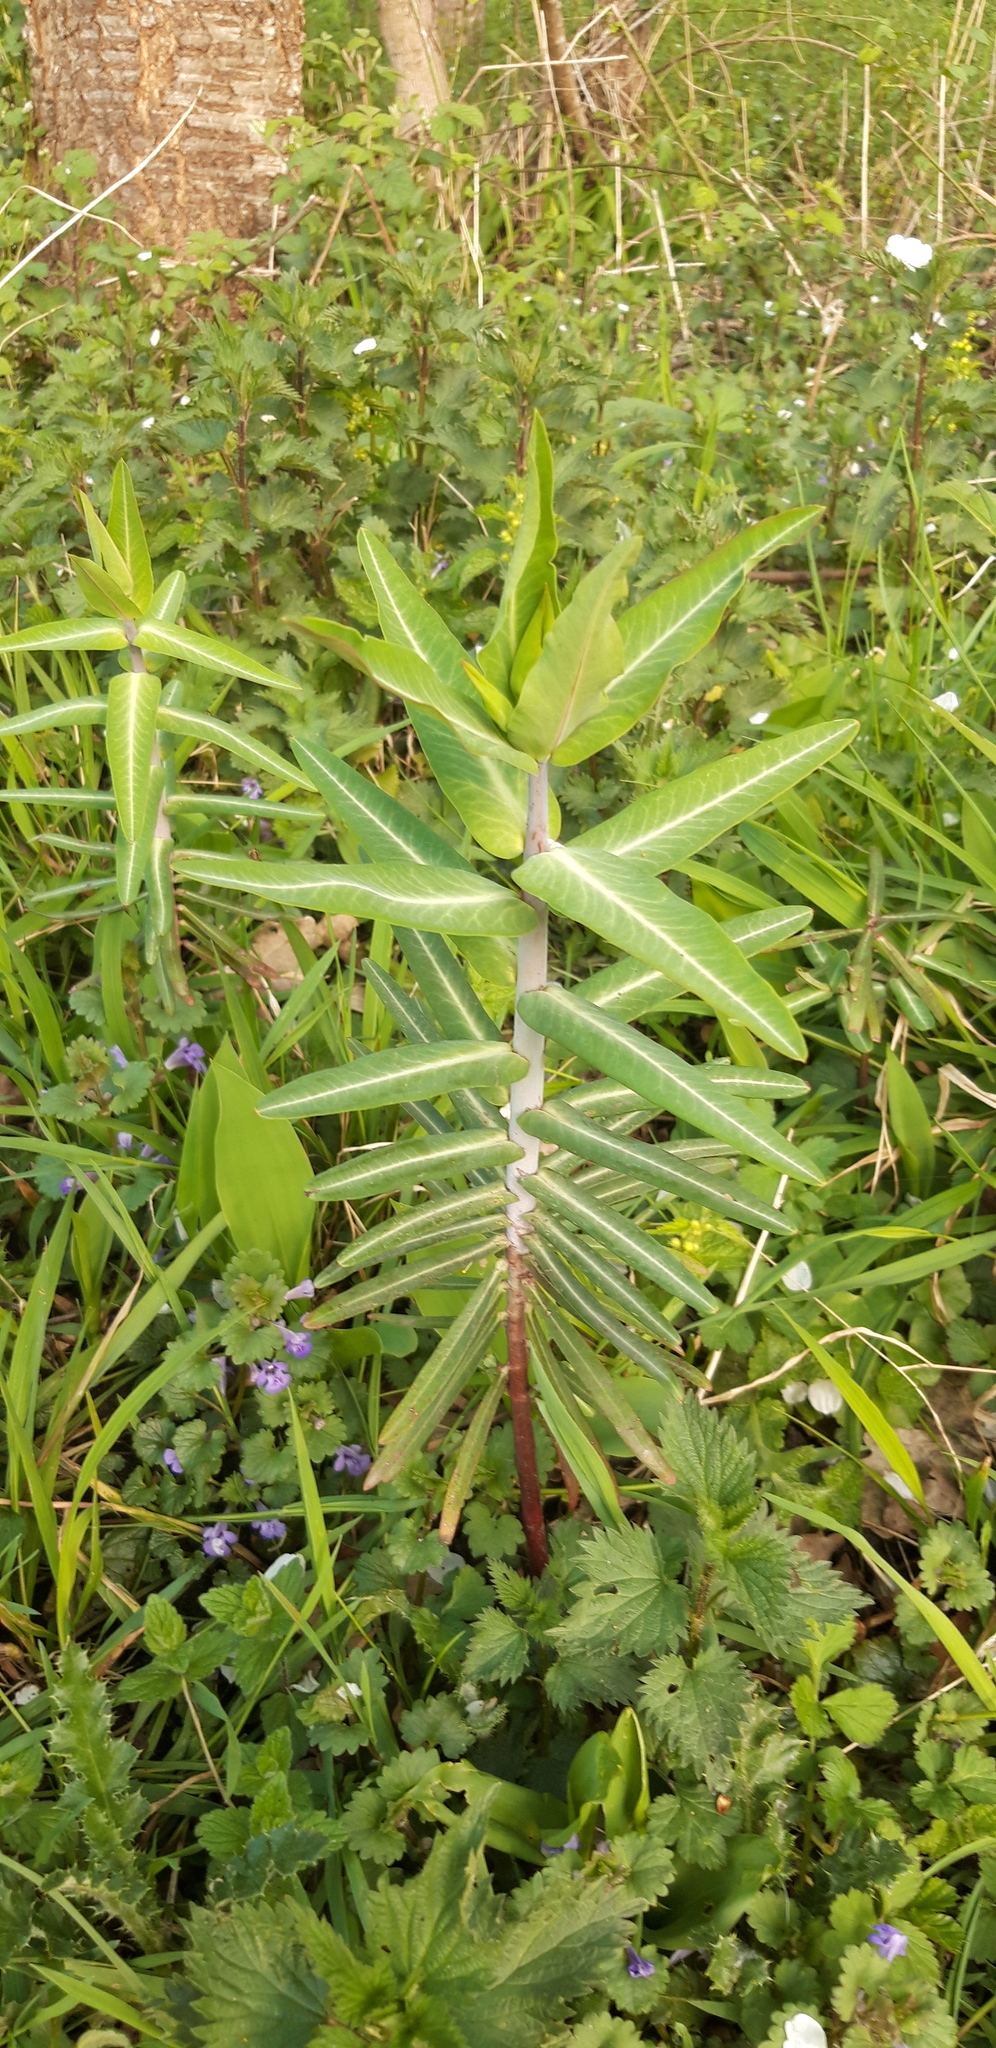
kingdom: Plantae
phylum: Tracheophyta
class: Magnoliopsida
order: Malpighiales
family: Euphorbiaceae
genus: Euphorbia
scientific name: Euphorbia lathyris
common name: Caper spurge
